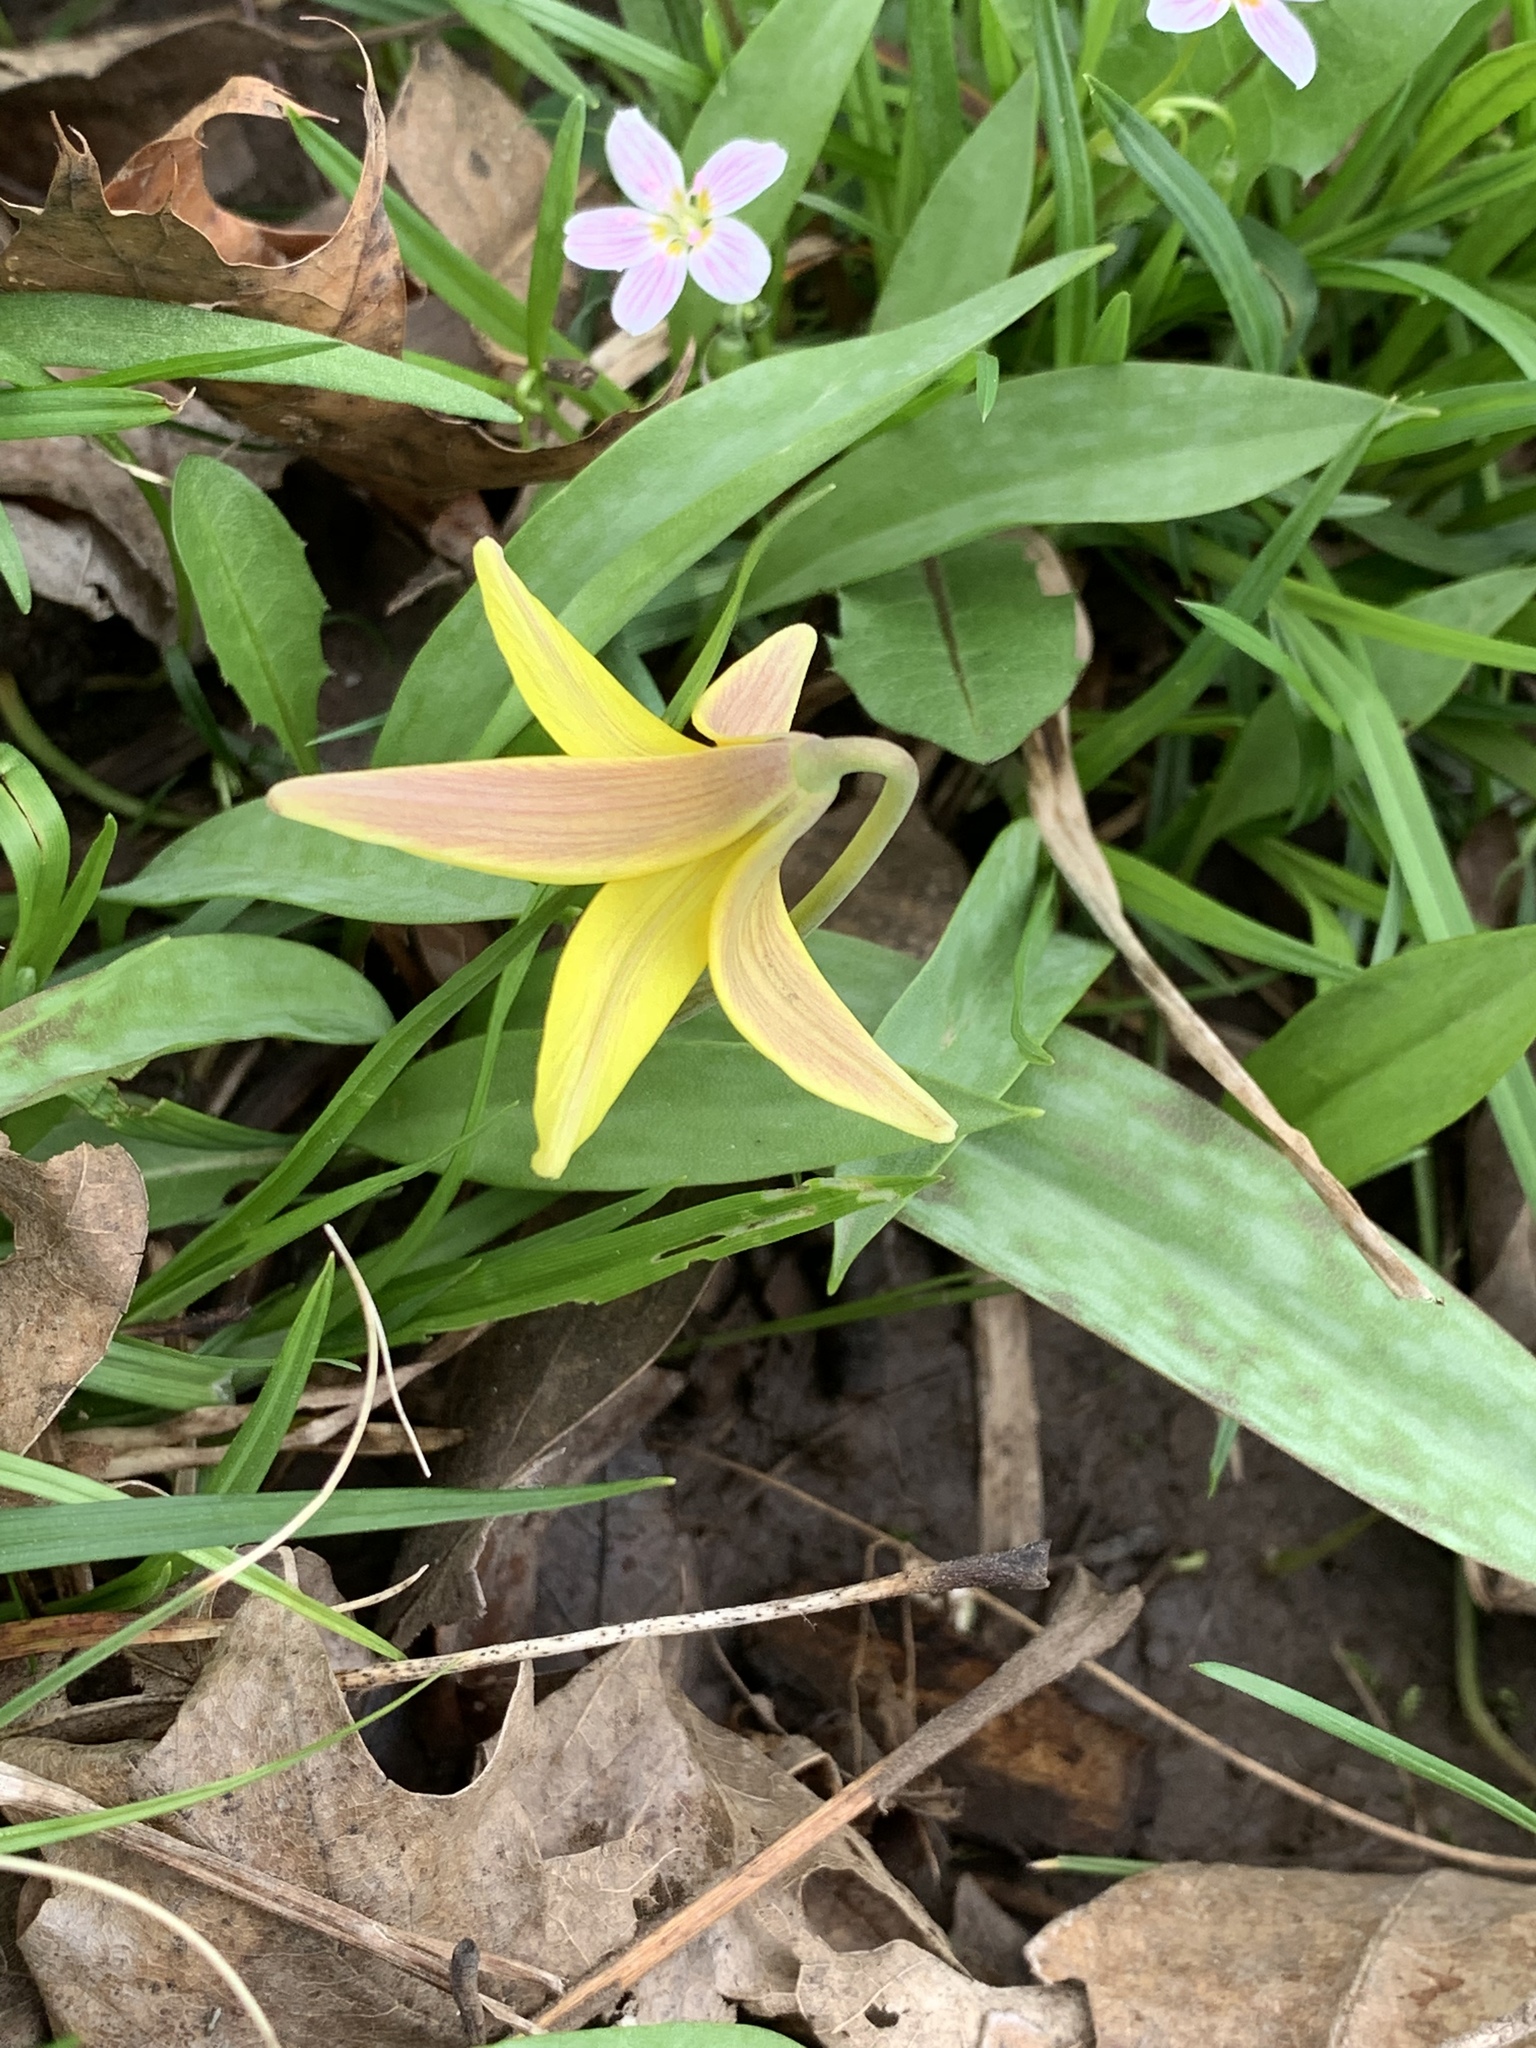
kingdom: Plantae
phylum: Tracheophyta
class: Liliopsida
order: Liliales
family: Liliaceae
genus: Erythronium
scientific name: Erythronium americanum
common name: Yellow adder's-tongue
